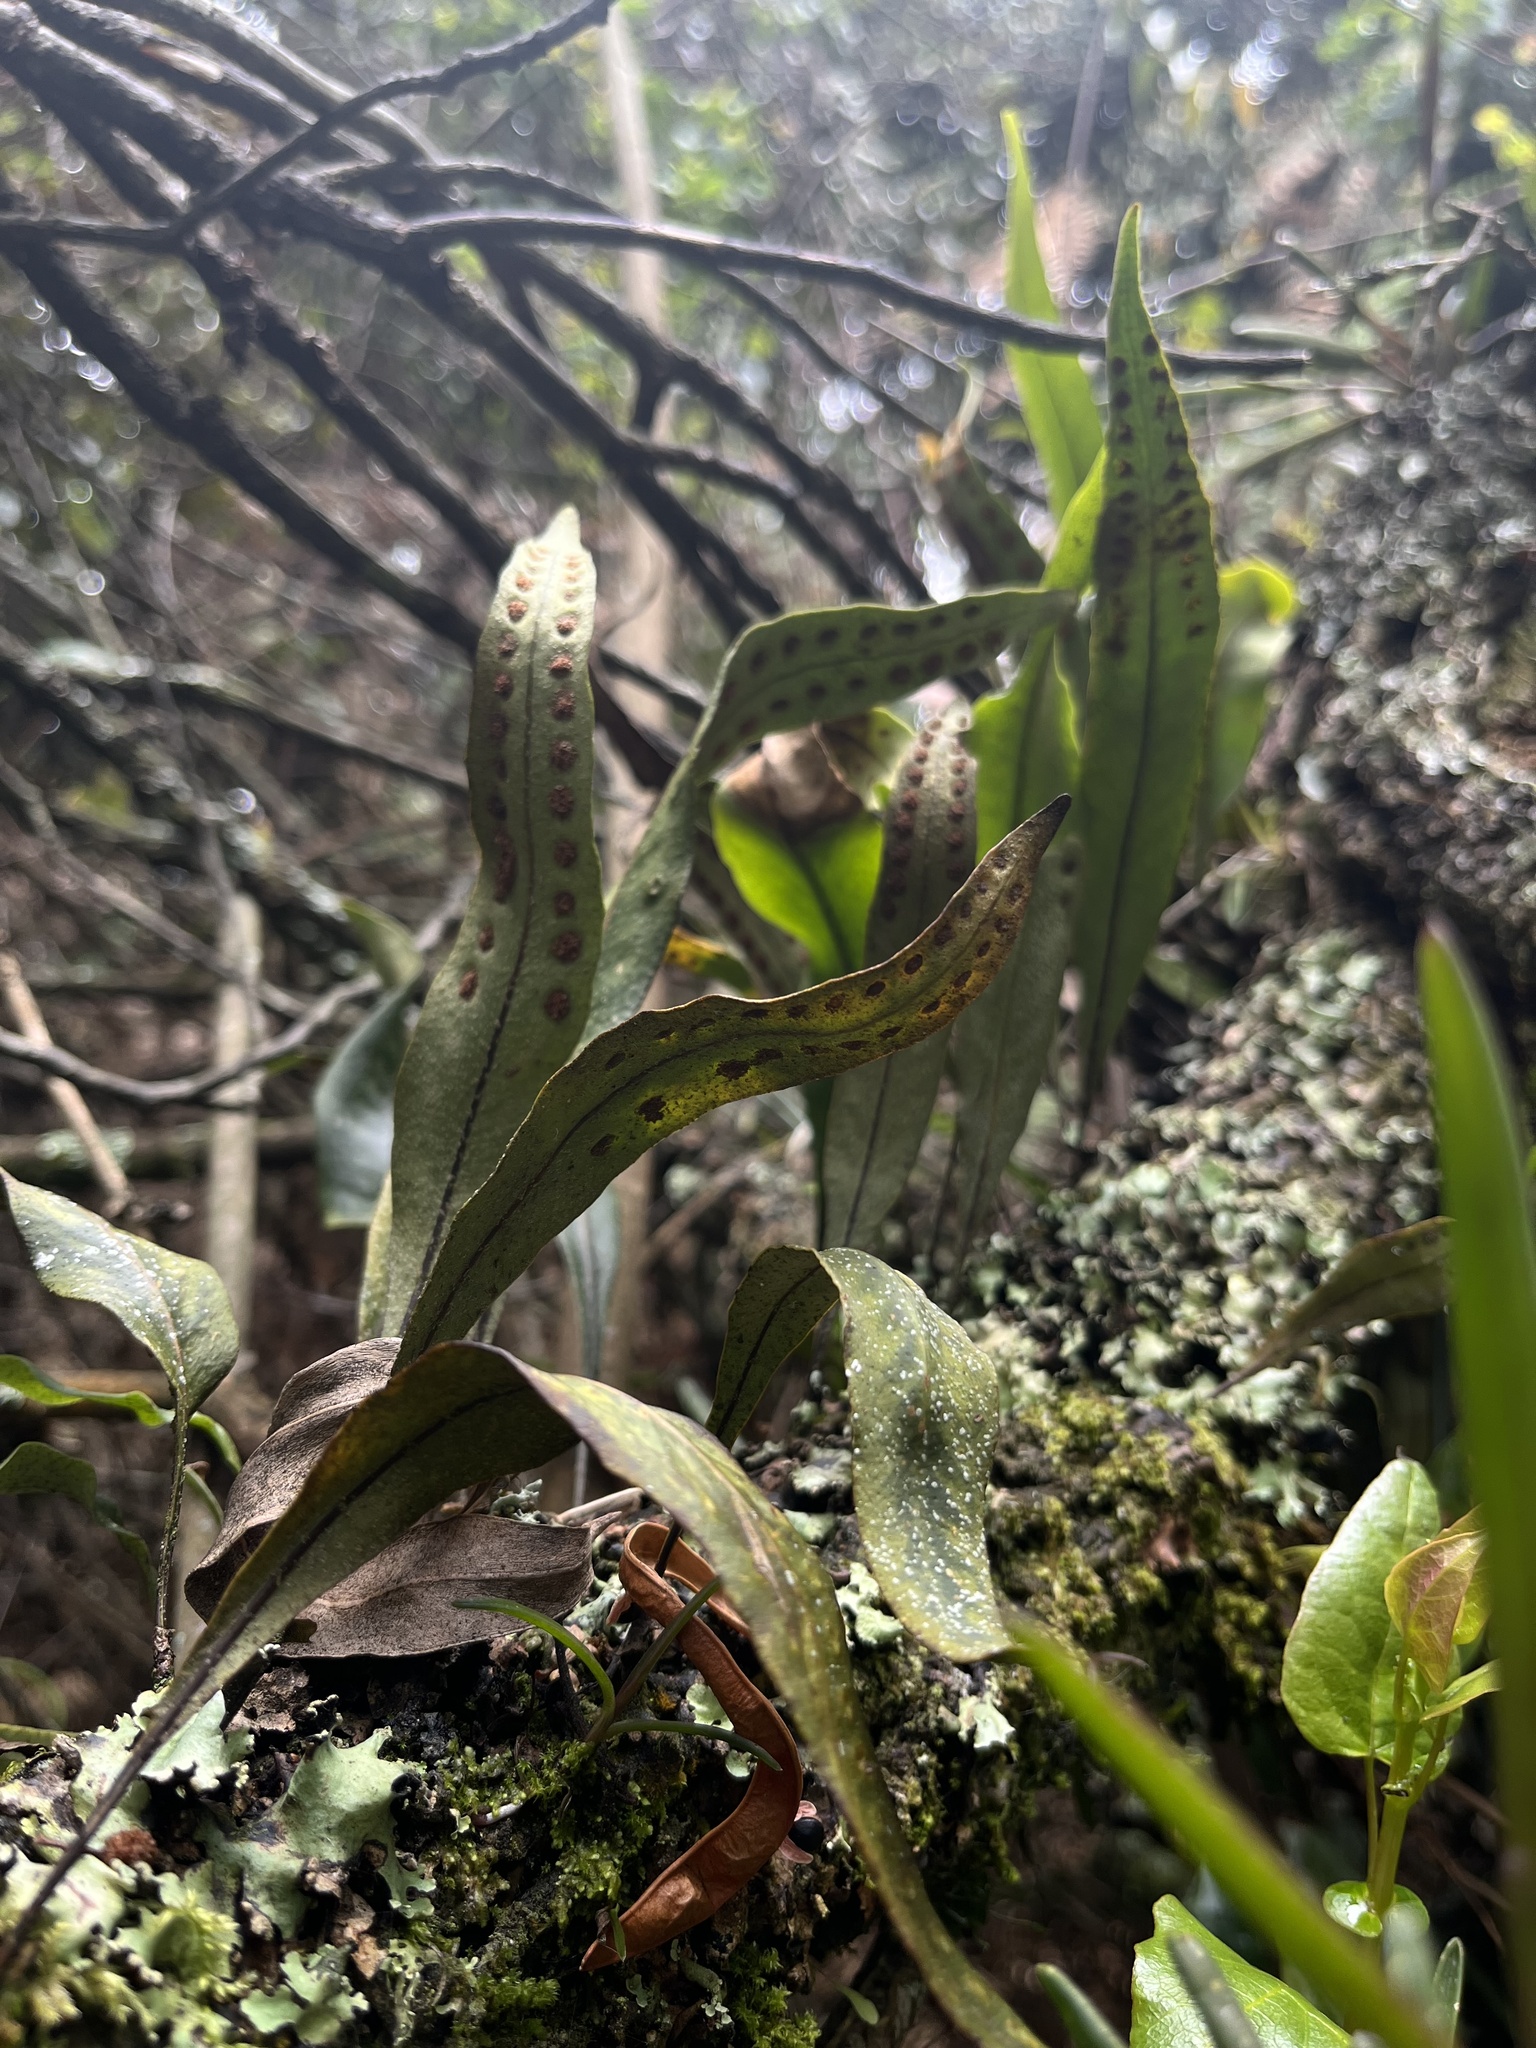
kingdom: Plantae
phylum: Tracheophyta
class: Polypodiopsida
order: Polypodiales
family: Polypodiaceae
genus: Pleopeltis
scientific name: Pleopeltis macrocarpa
